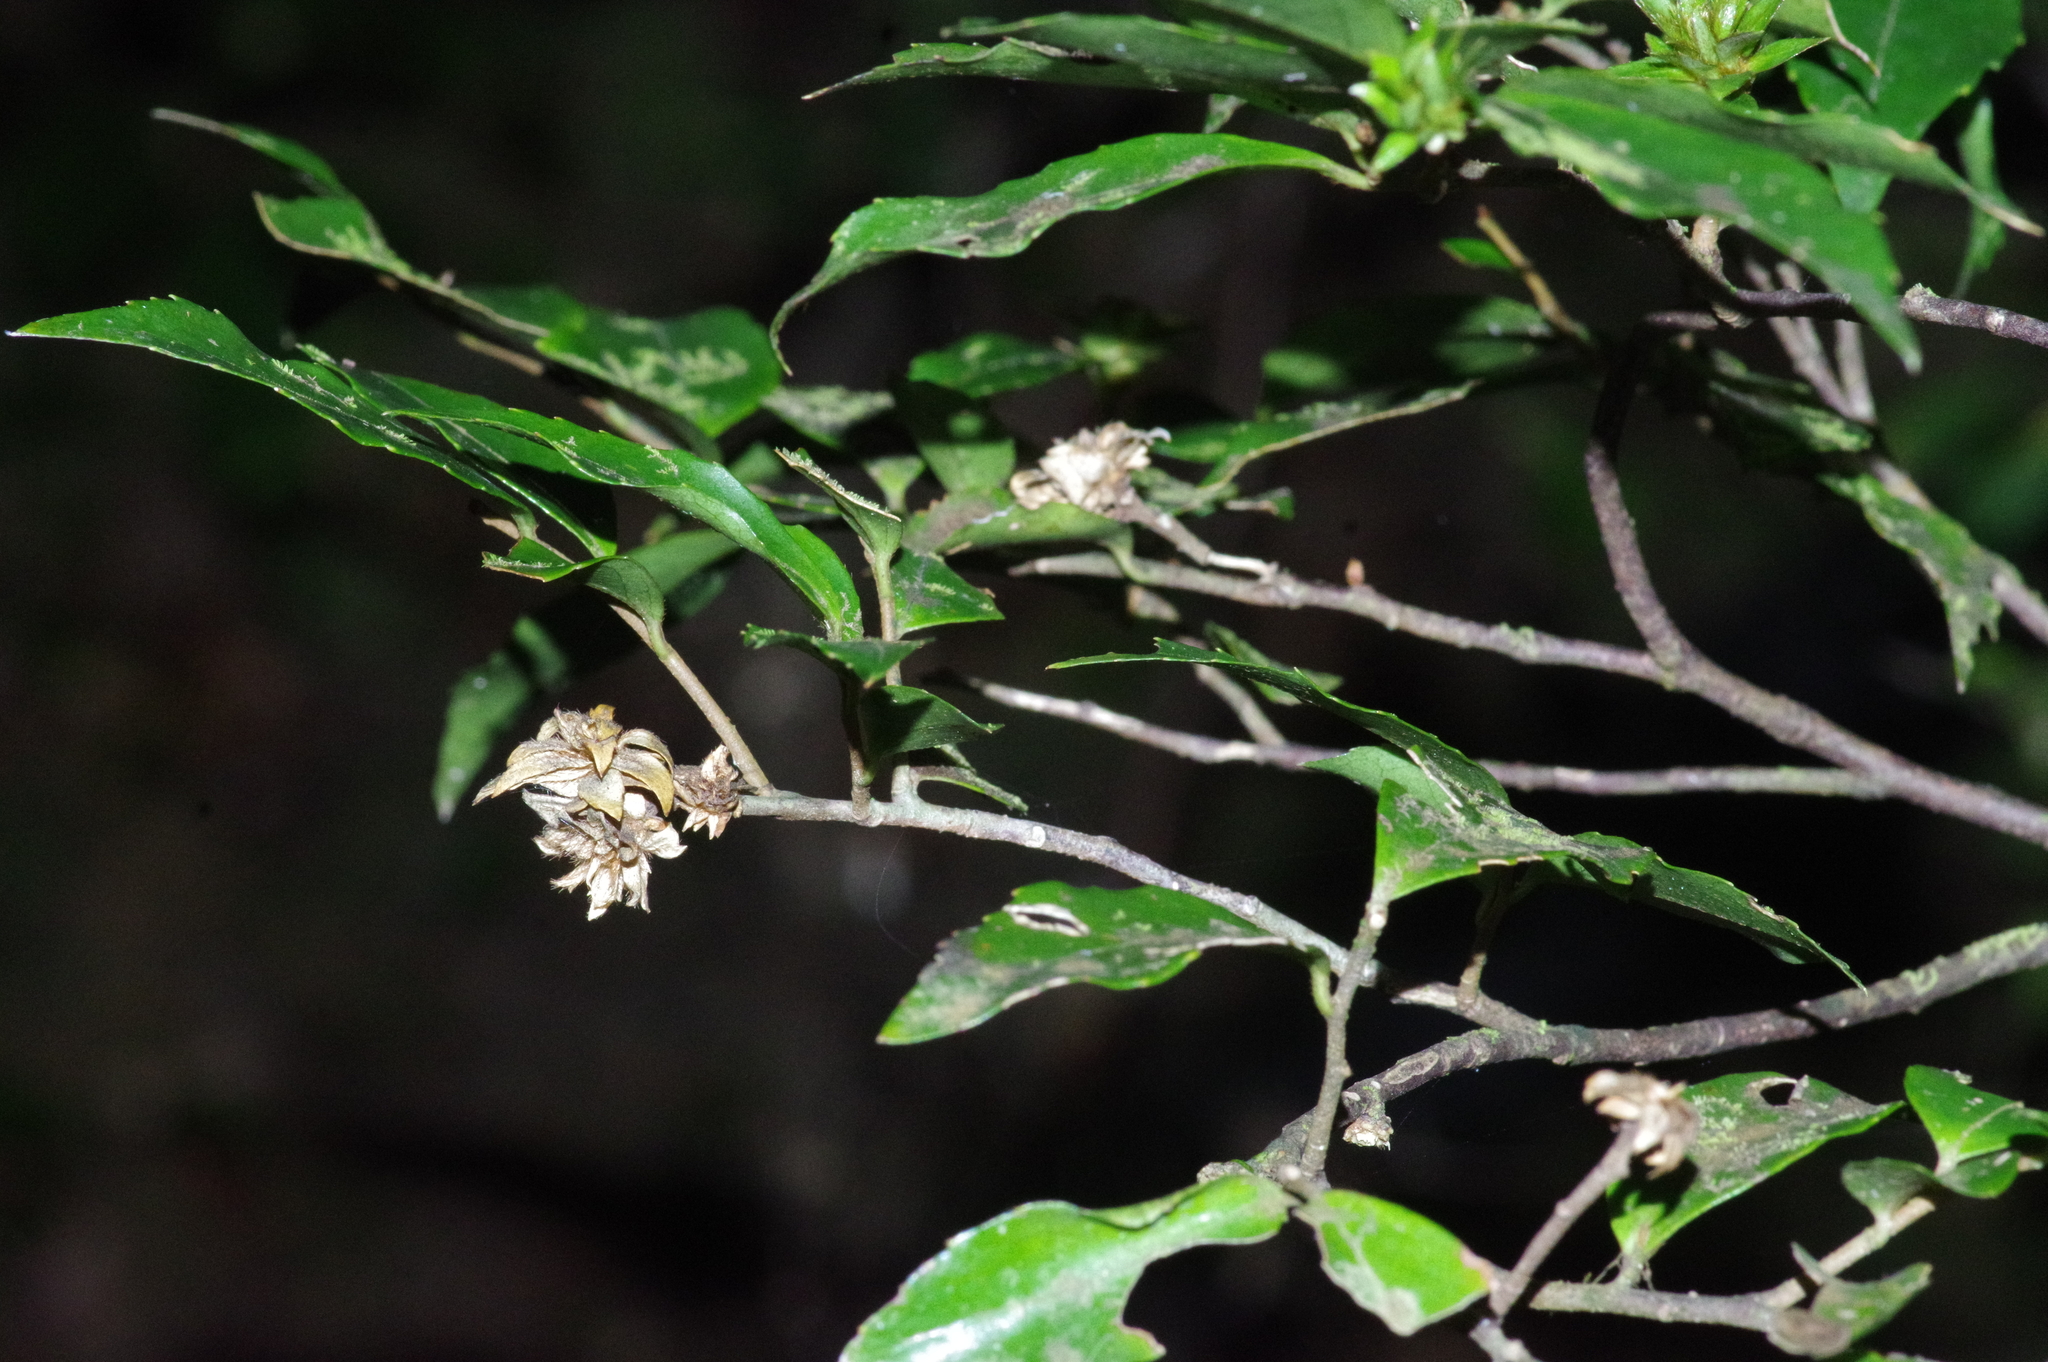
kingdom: Plantae
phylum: Tracheophyta
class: Magnoliopsida
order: Ericales
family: Symplocaceae
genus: Symplocos
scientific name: Symplocos lancifolia
